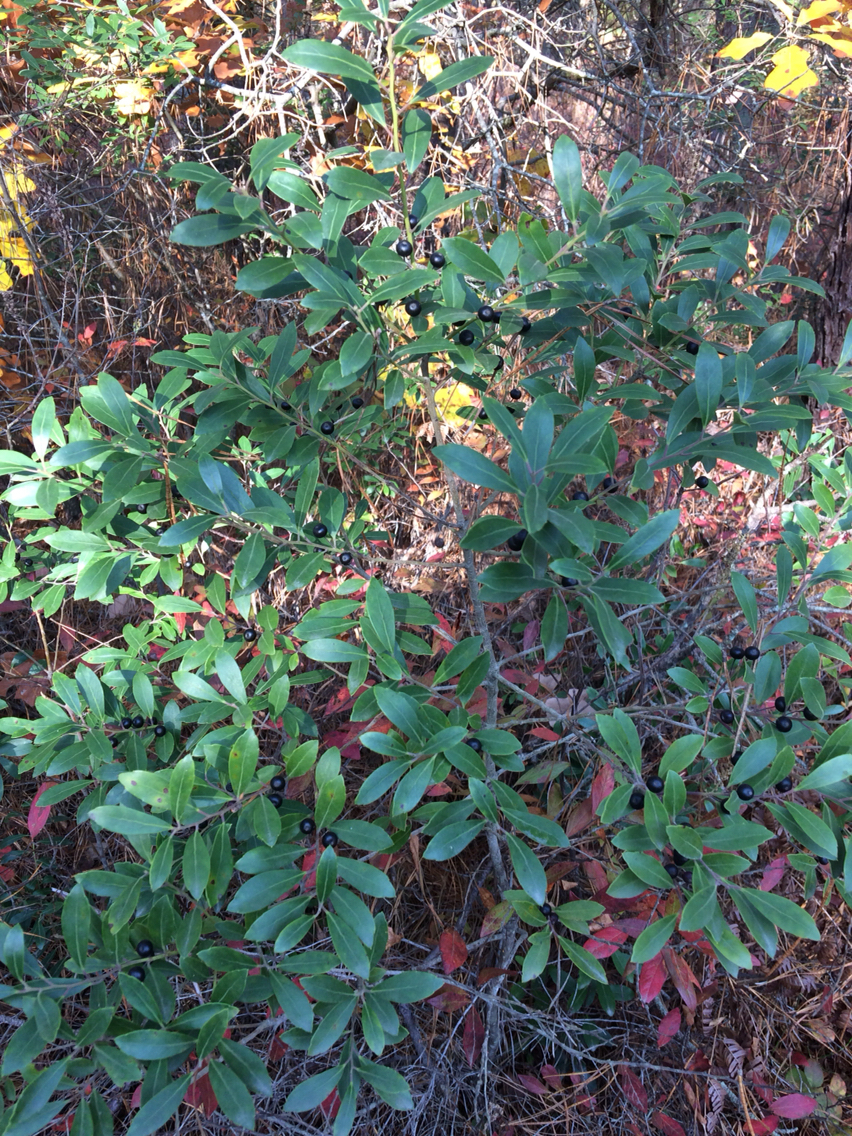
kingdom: Plantae
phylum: Tracheophyta
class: Magnoliopsida
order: Aquifoliales
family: Aquifoliaceae
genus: Ilex
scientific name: Ilex glabra
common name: Bitter gallberry
